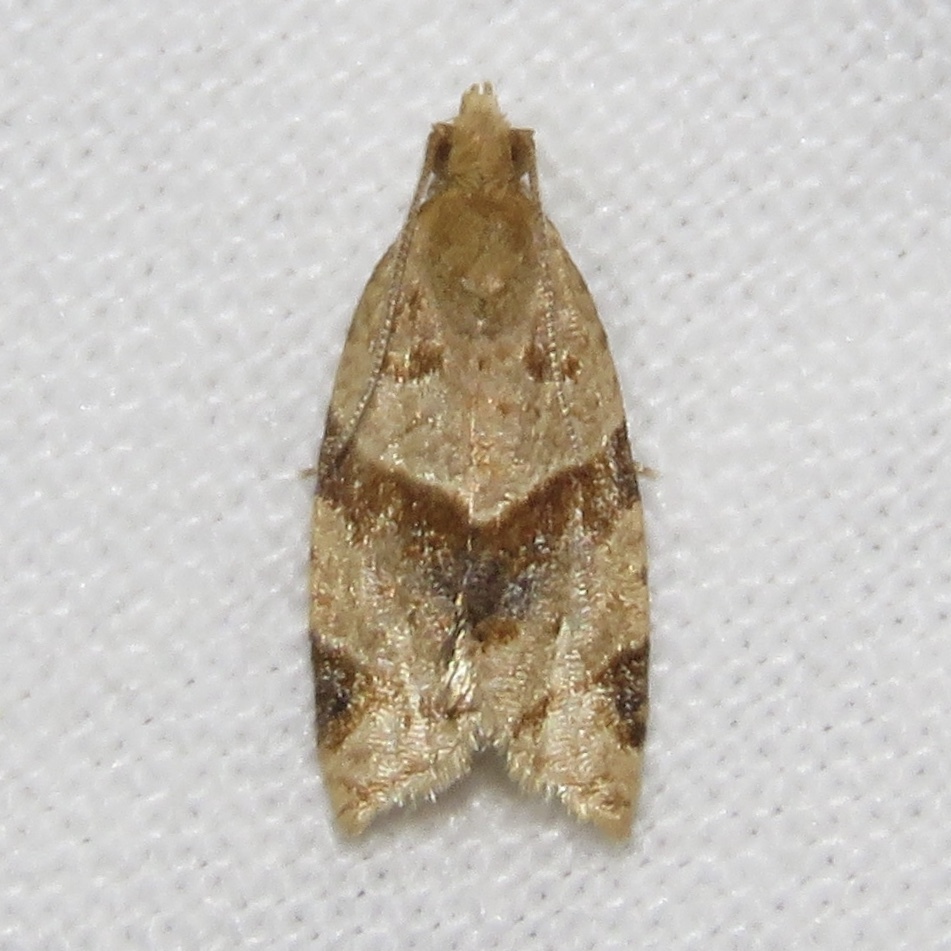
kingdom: Animalia
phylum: Arthropoda
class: Insecta
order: Lepidoptera
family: Tortricidae
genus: Clepsis
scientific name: Clepsis peritana
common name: Garden tortrix
